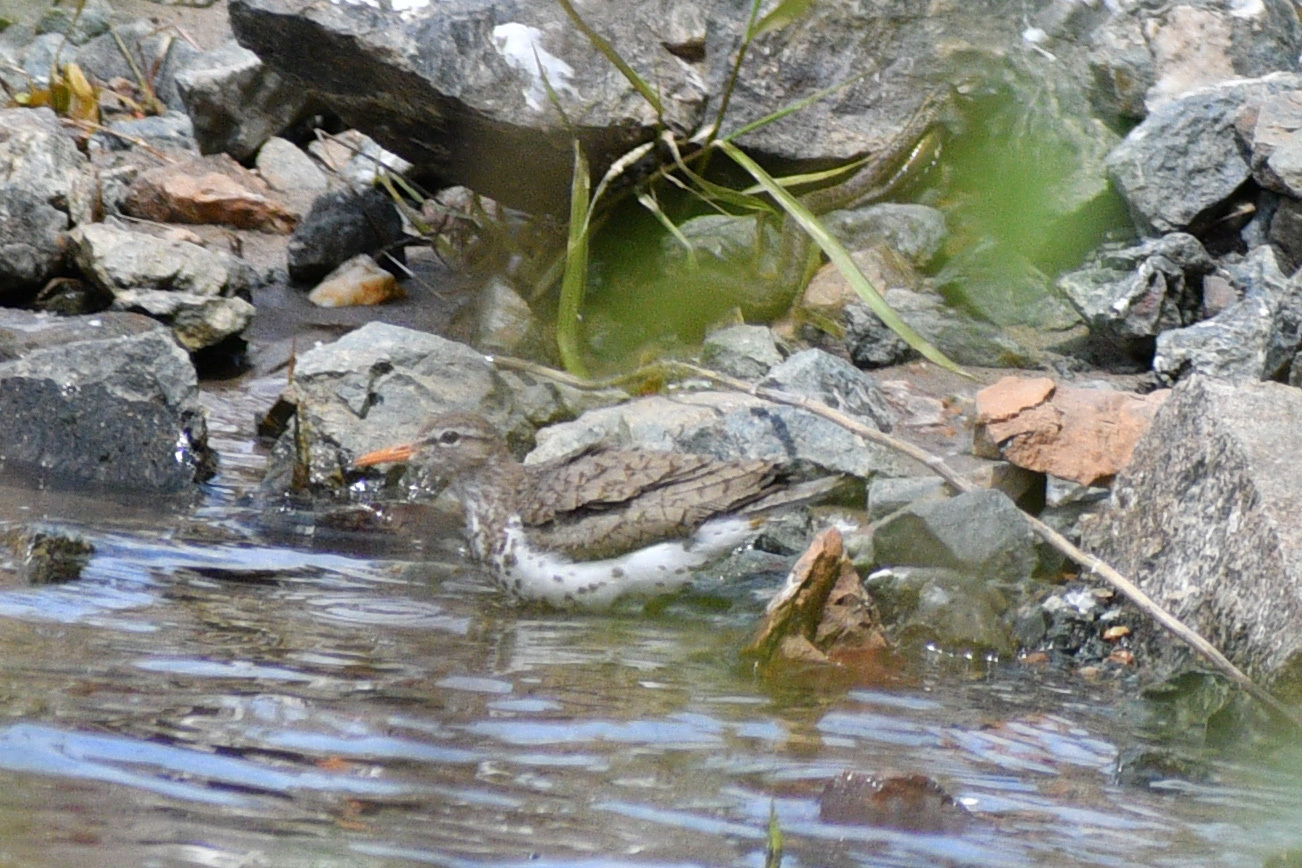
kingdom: Animalia
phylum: Chordata
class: Aves
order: Charadriiformes
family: Scolopacidae
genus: Actitis
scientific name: Actitis macularius
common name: Spotted sandpiper
